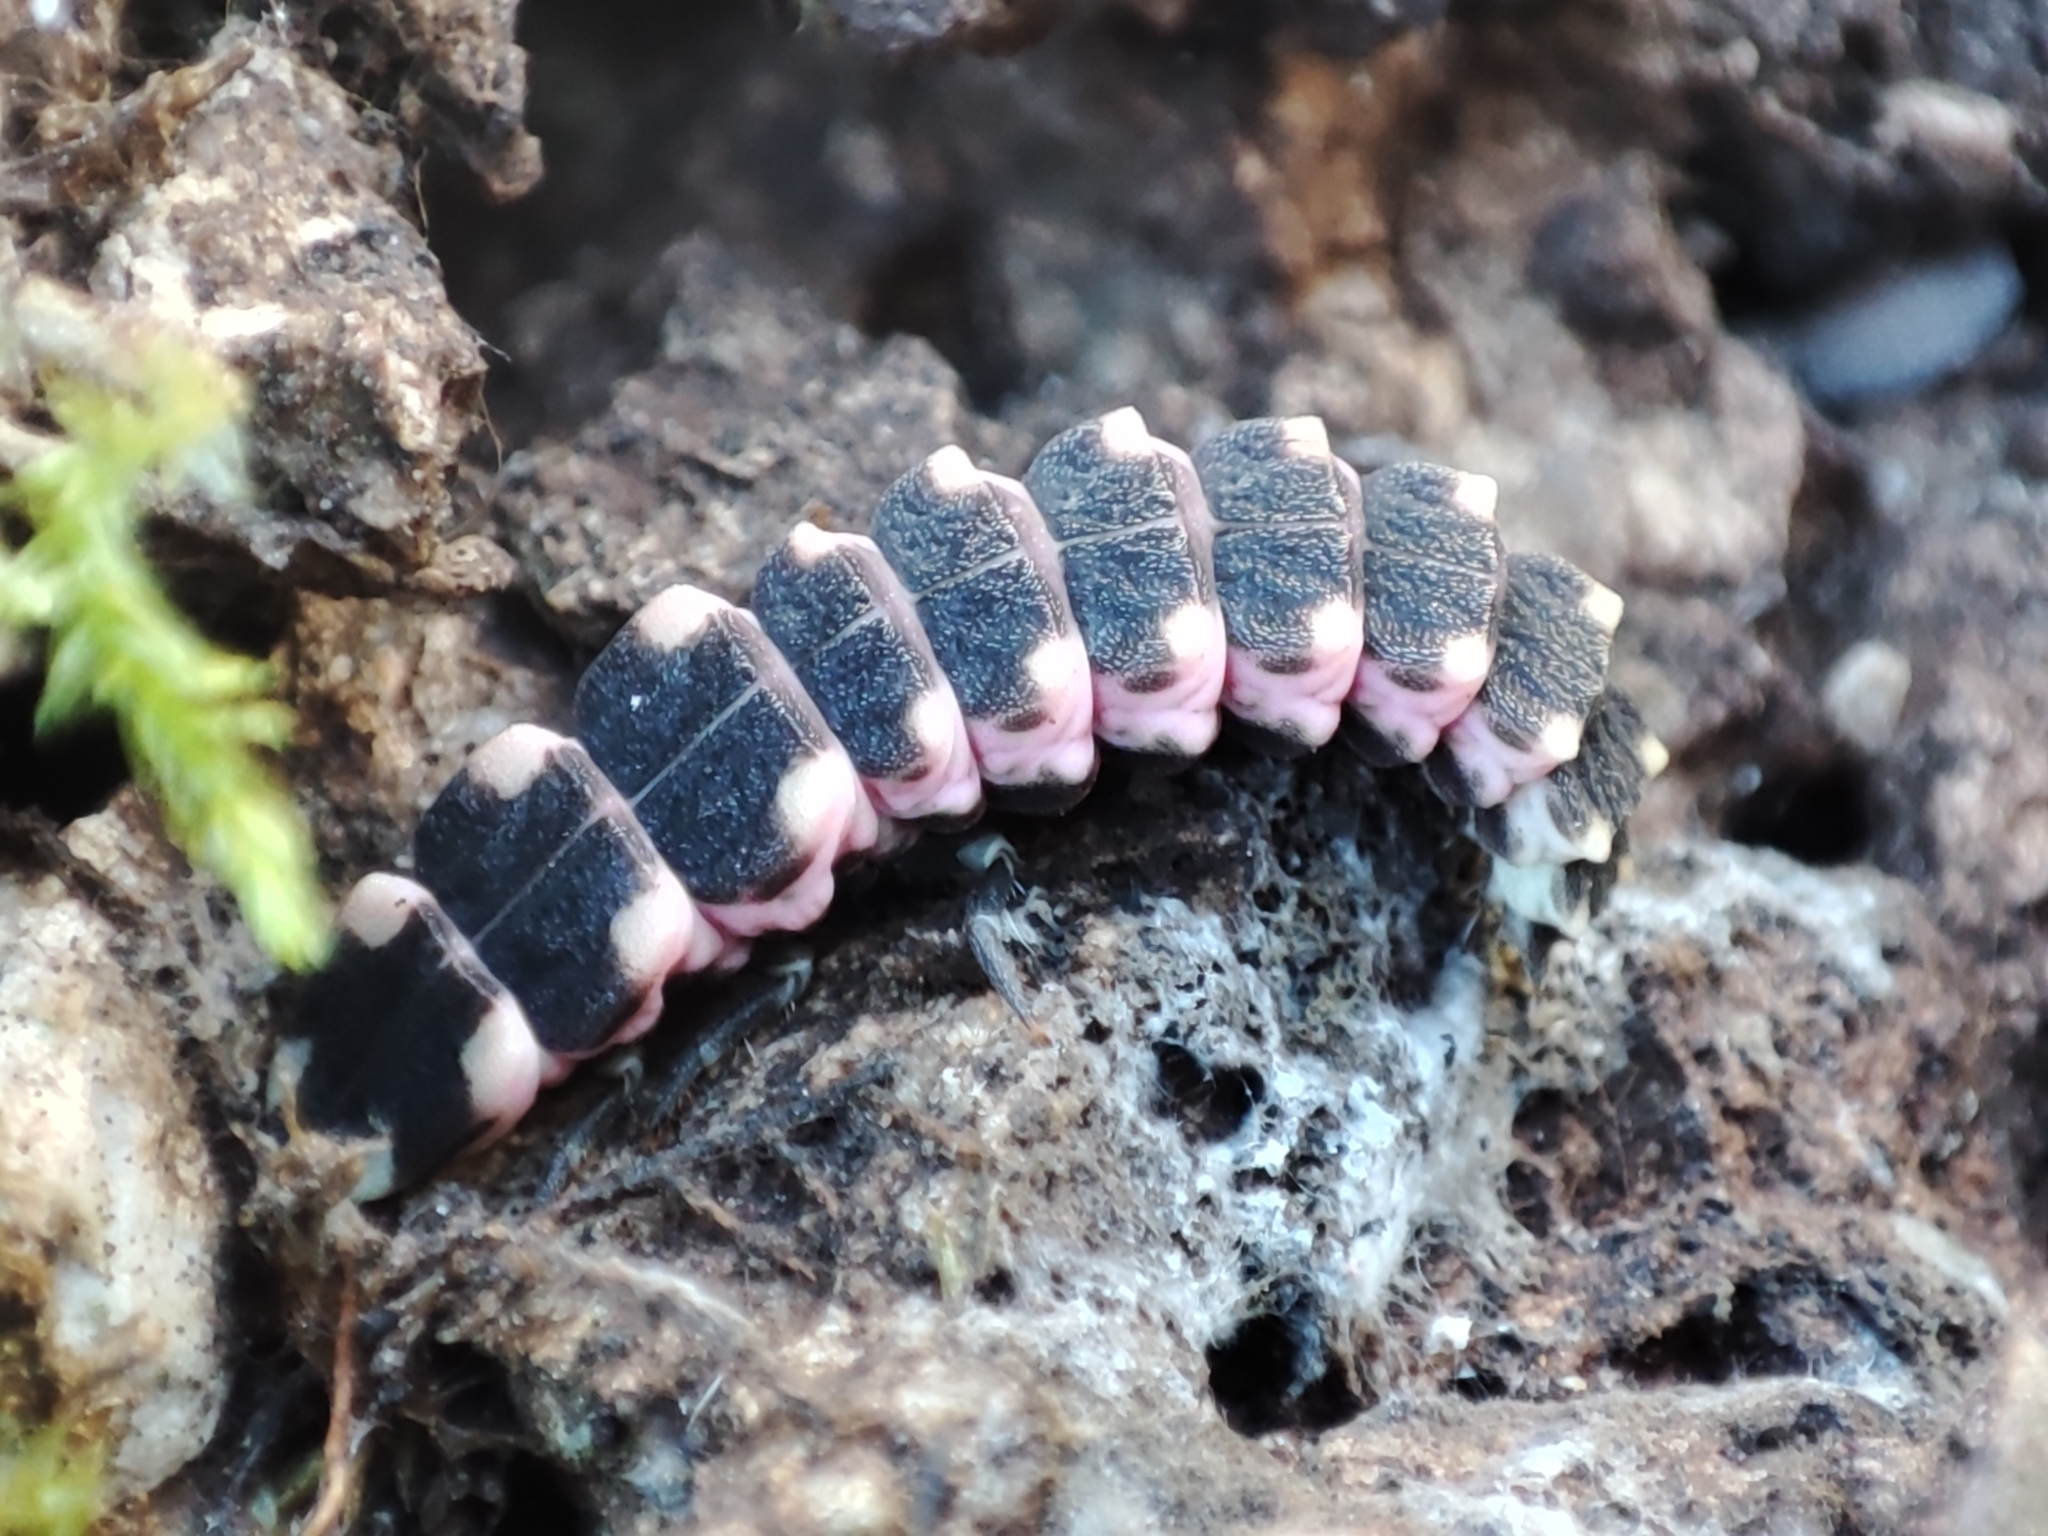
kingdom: Animalia
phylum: Arthropoda
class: Insecta
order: Coleoptera
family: Lampyridae
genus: Nyctophila
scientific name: Nyctophila heydeni
